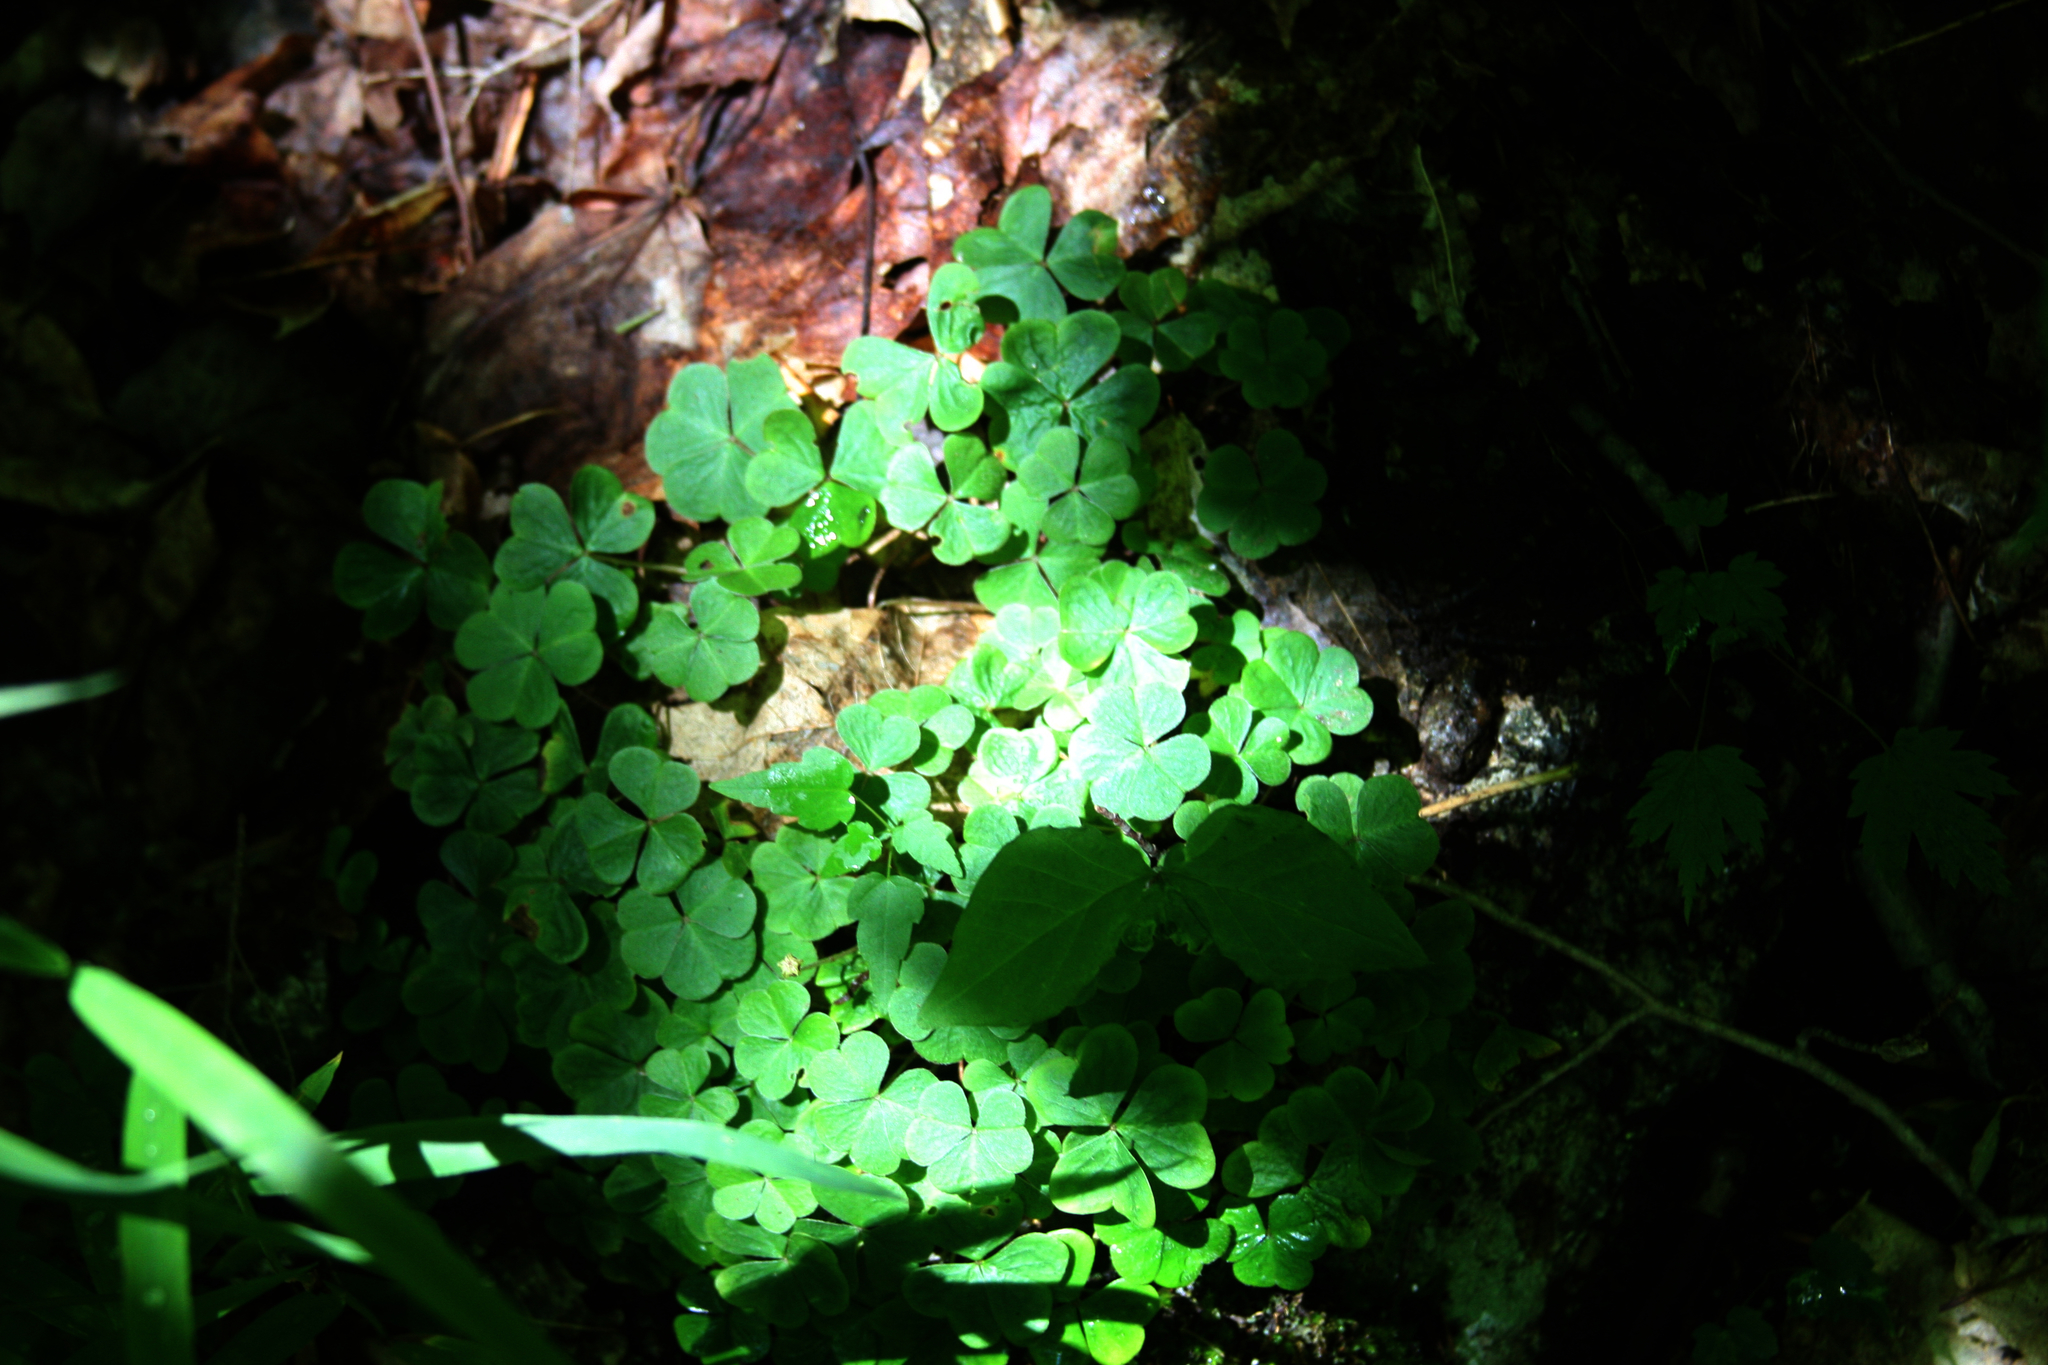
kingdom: Plantae
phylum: Tracheophyta
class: Magnoliopsida
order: Oxalidales
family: Oxalidaceae
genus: Oxalis
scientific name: Oxalis montana
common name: American wood-sorrel
